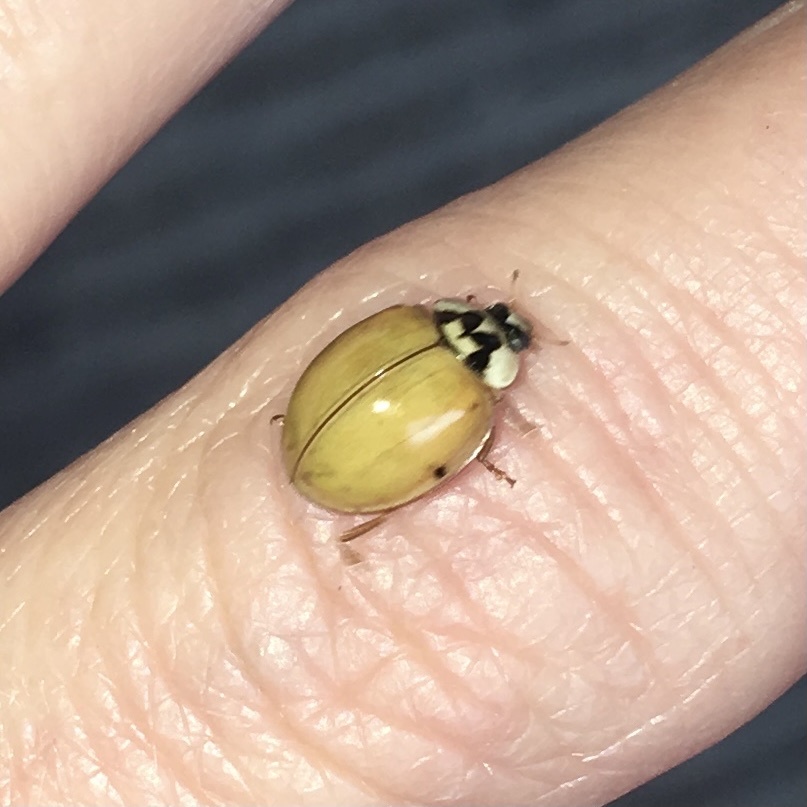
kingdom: Animalia
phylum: Arthropoda
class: Insecta
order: Coleoptera
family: Coccinellidae
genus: Harmonia
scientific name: Harmonia axyridis
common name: Harlequin ladybird
